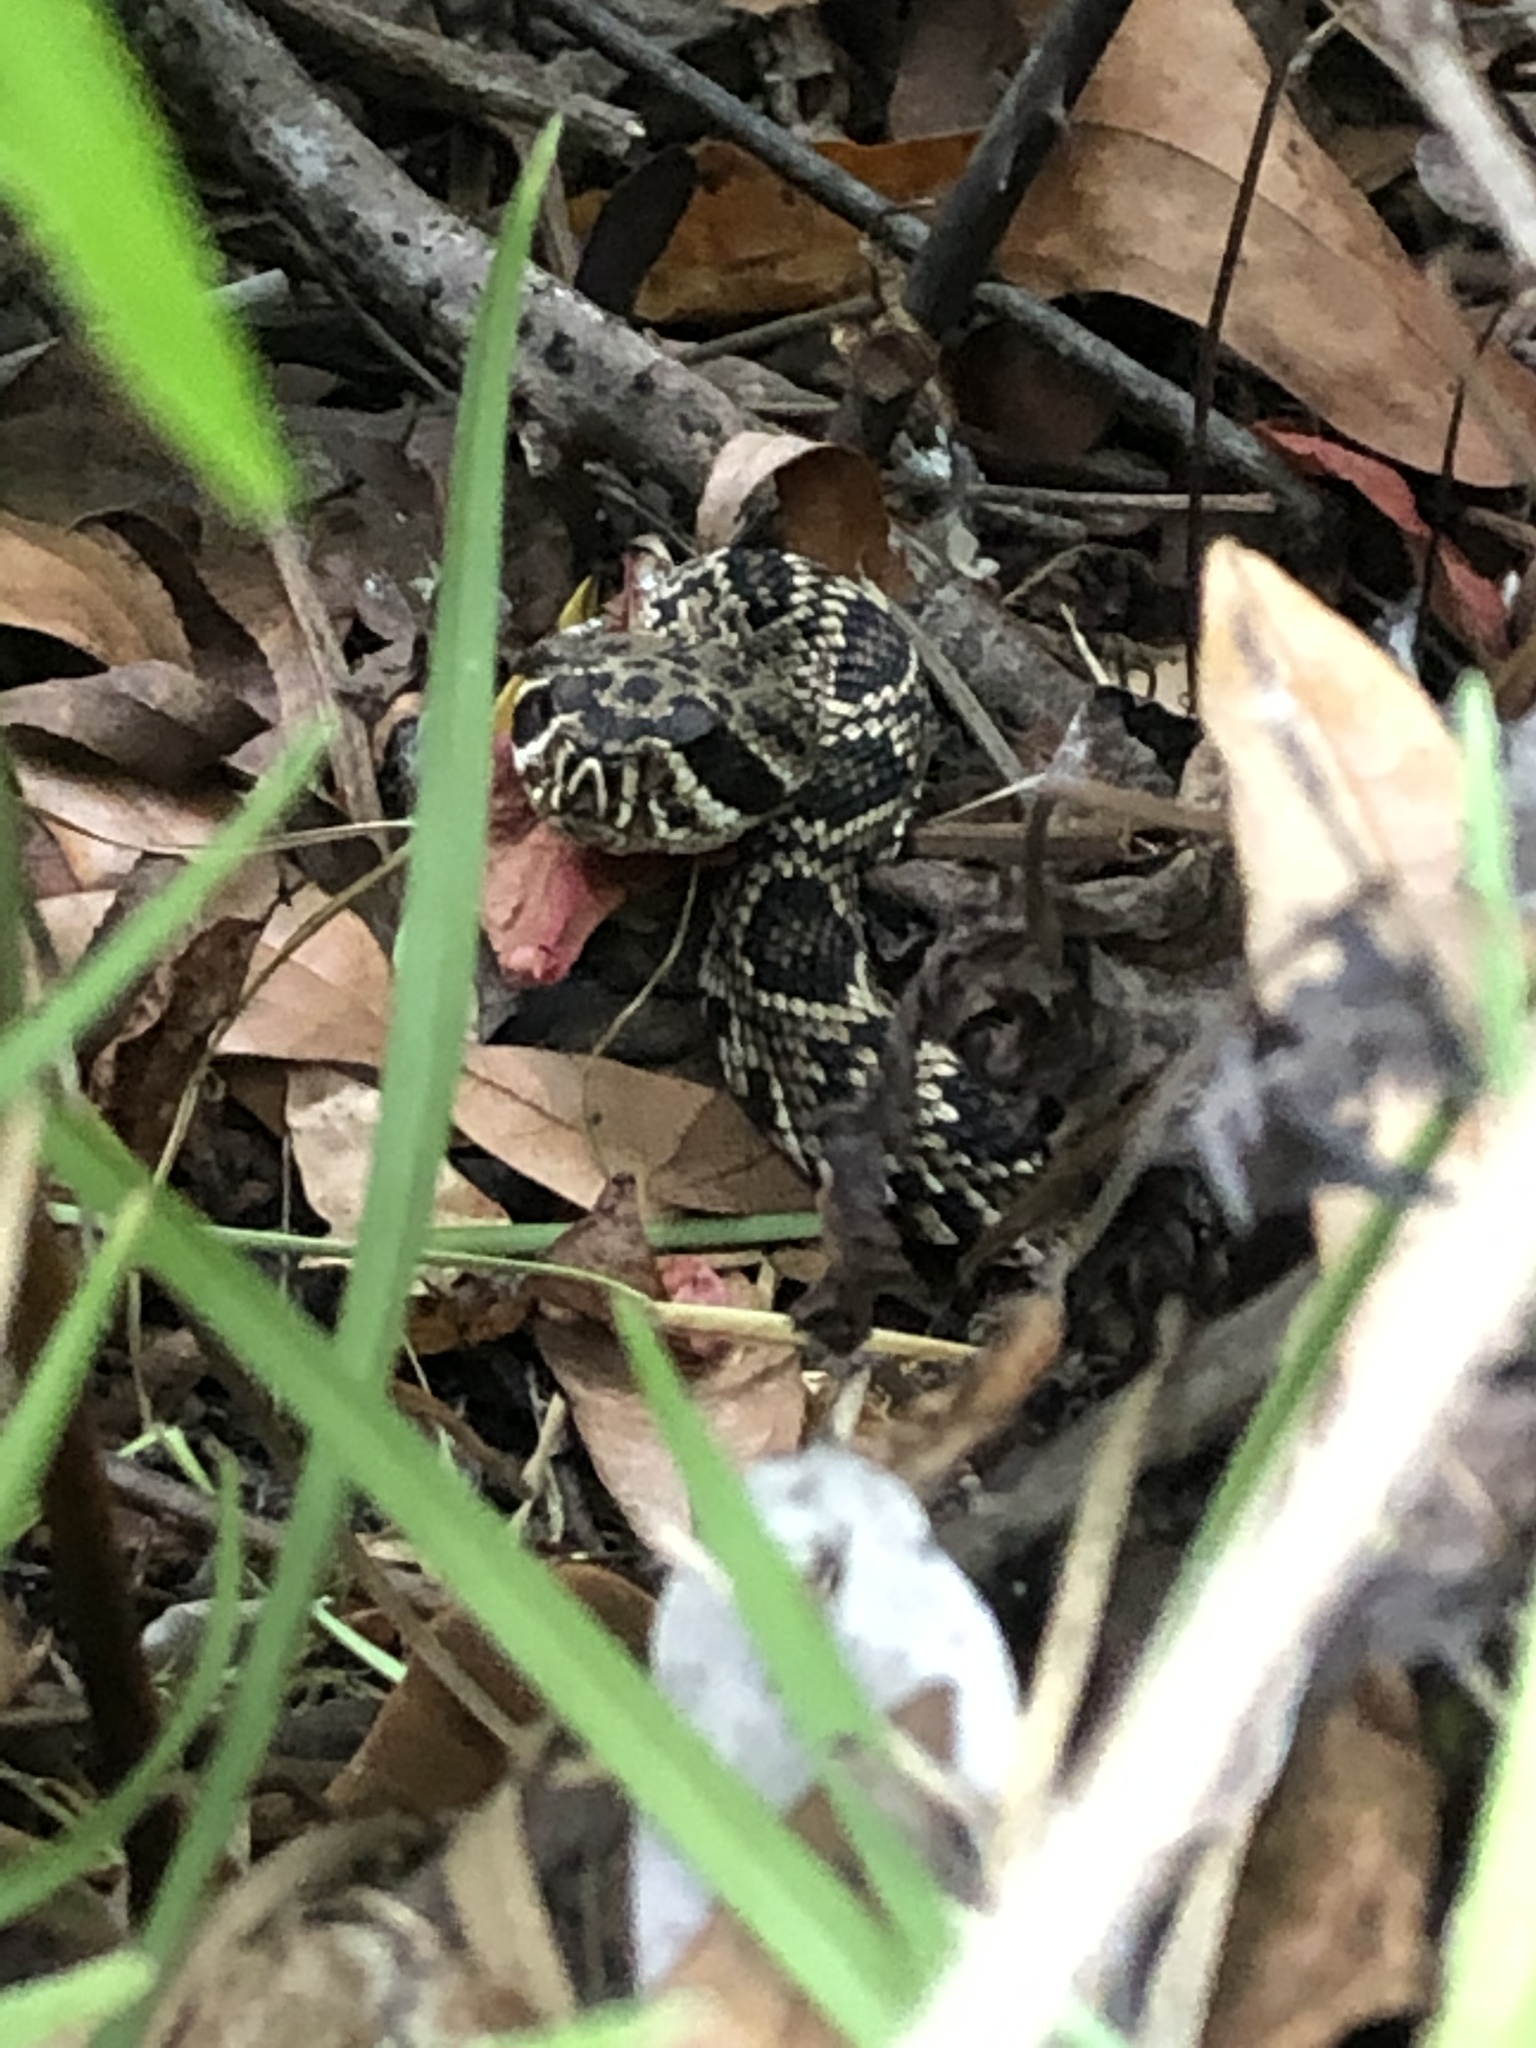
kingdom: Animalia
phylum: Chordata
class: Squamata
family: Viperidae
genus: Crotalus
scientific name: Crotalus adamanteus
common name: Eastern diamondback rattlesnake
